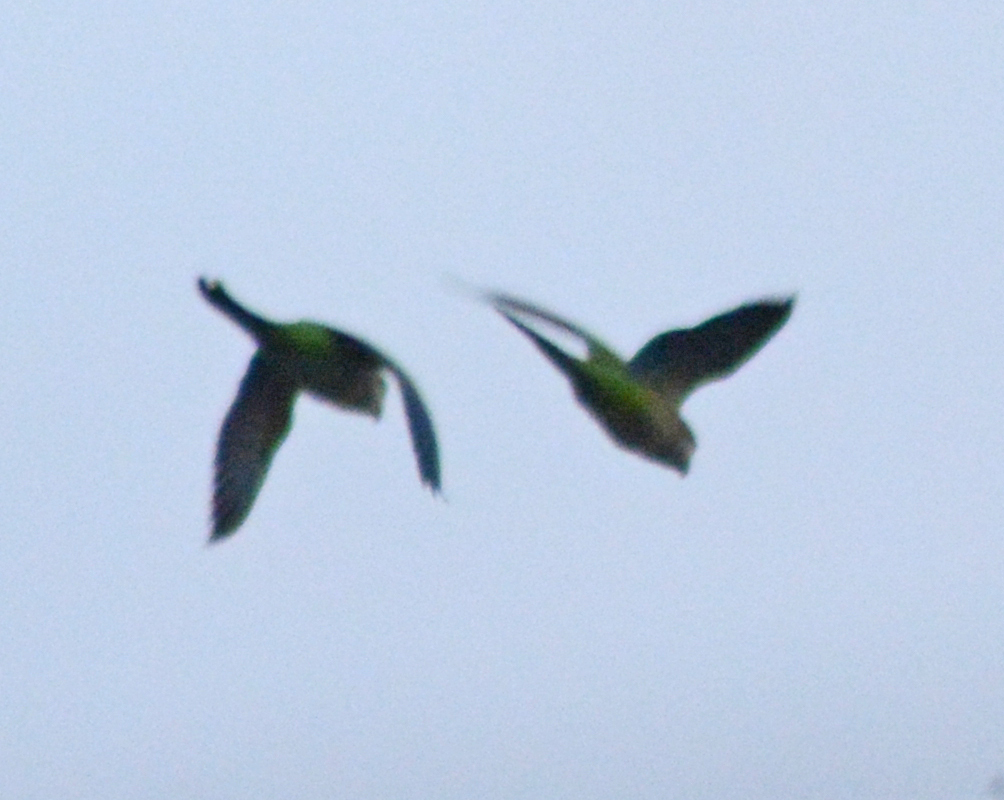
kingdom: Animalia
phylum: Chordata
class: Aves
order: Psittaciformes
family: Psittacidae
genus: Myiopsitta
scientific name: Myiopsitta monachus
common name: Monk parakeet
